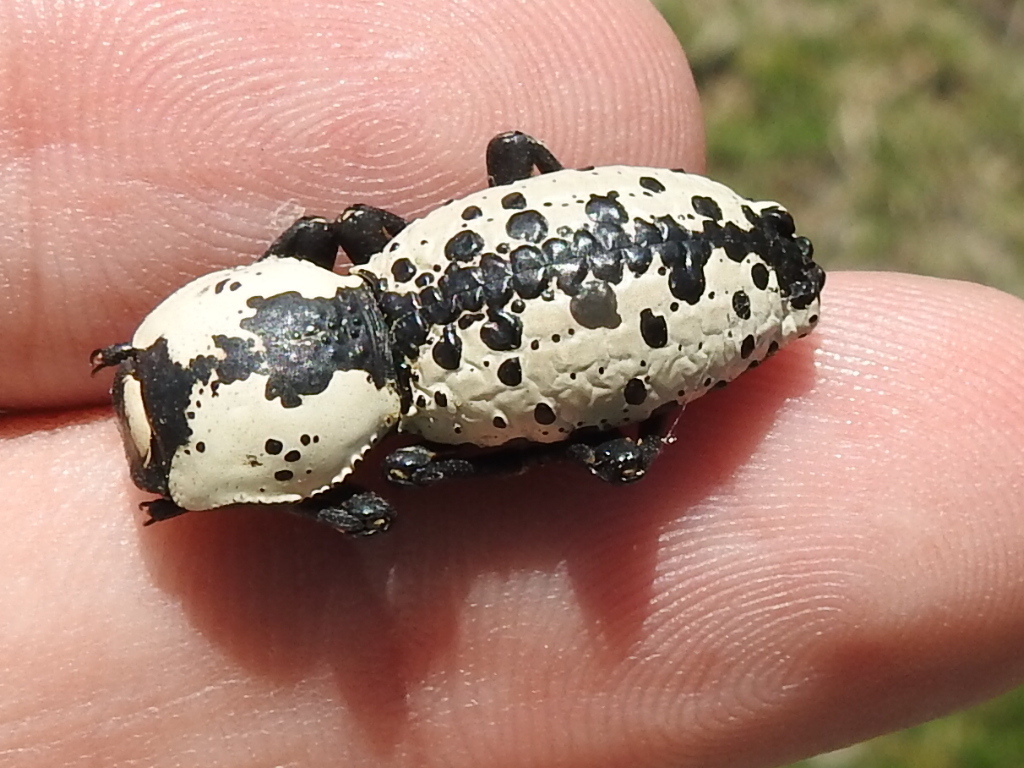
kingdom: Animalia
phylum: Arthropoda
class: Insecta
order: Coleoptera
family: Zopheridae
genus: Zopherus
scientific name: Zopherus nodulosus
